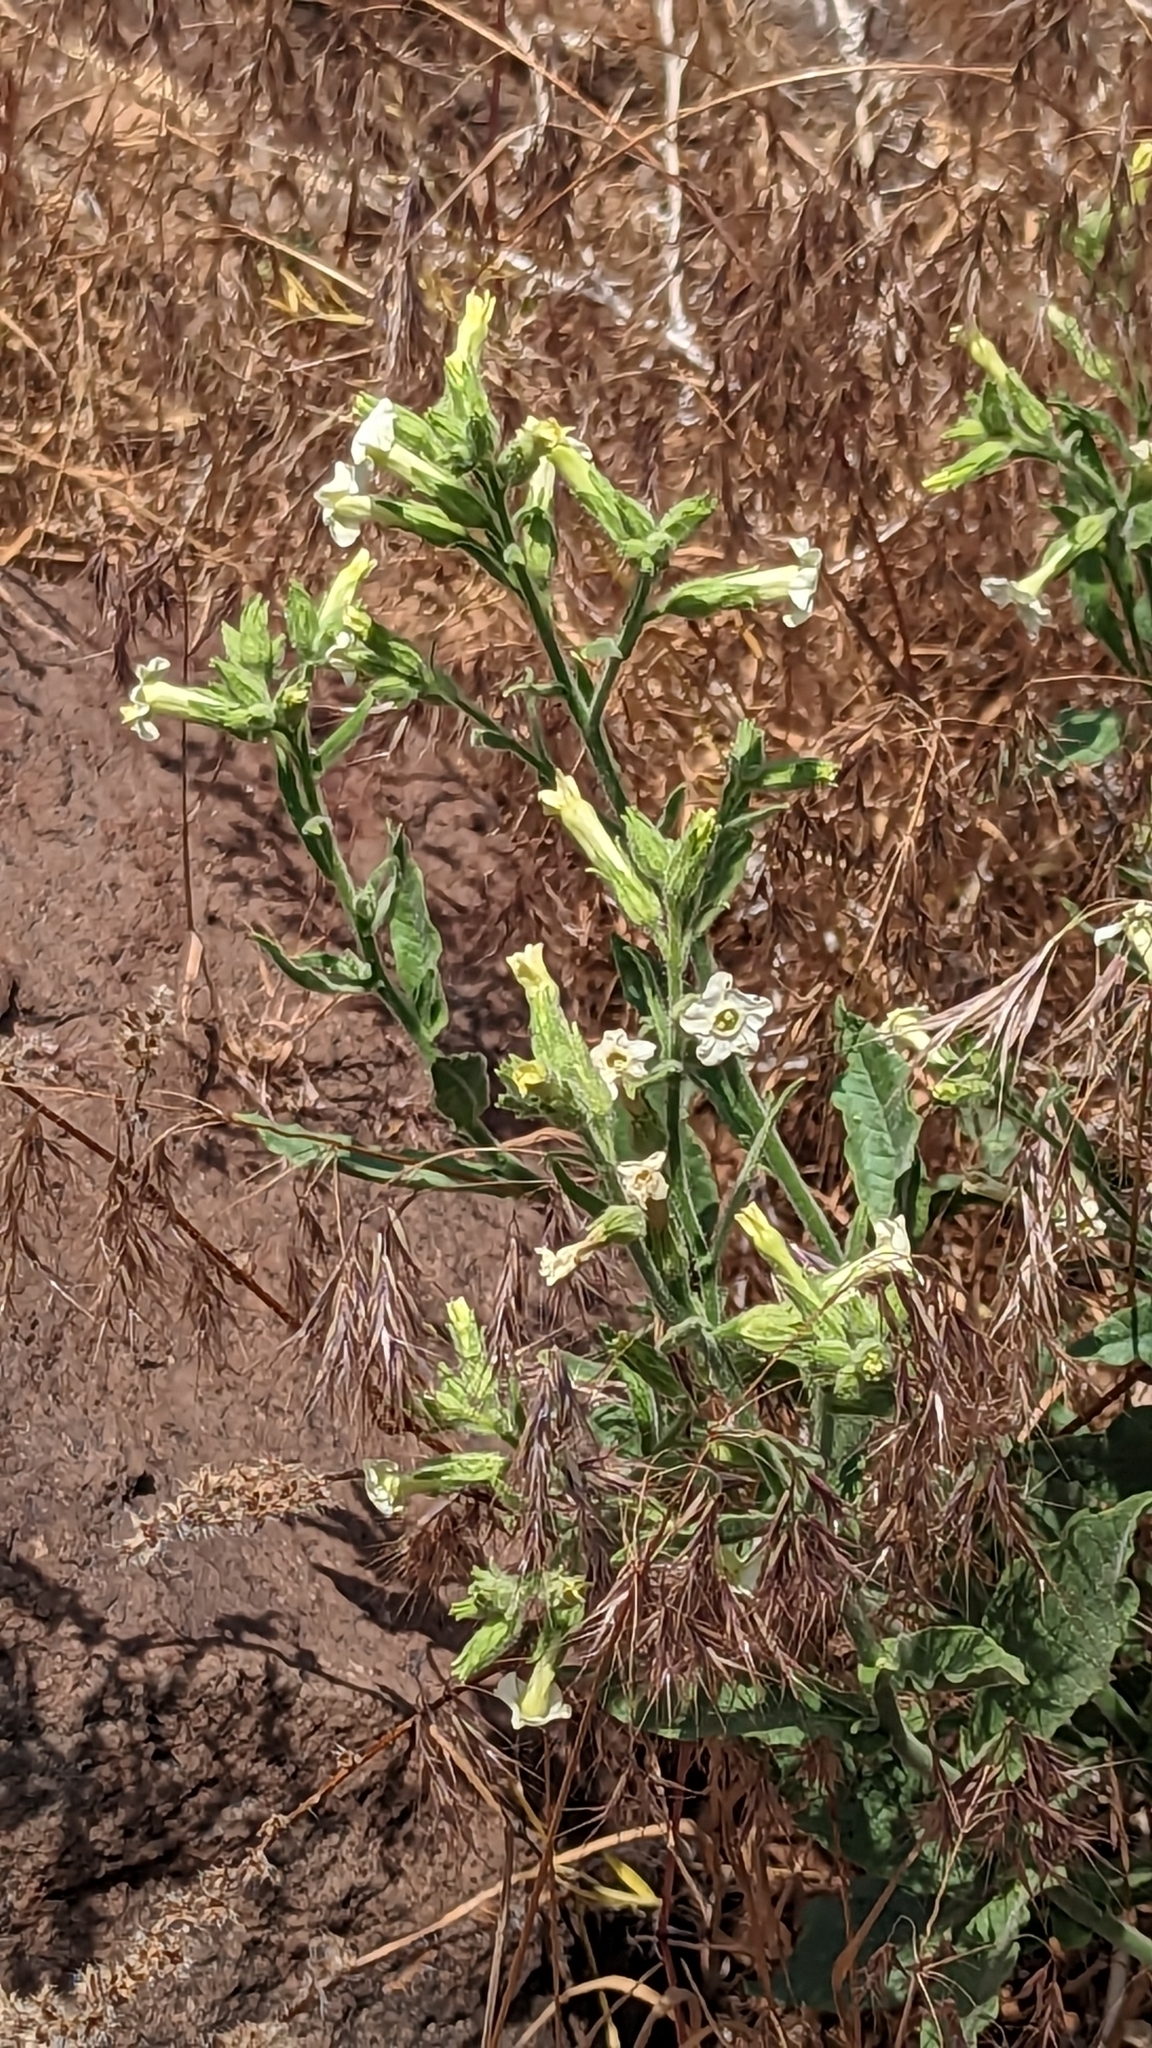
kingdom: Plantae
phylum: Tracheophyta
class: Magnoliopsida
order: Solanales
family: Solanaceae
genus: Nicotiana
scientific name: Nicotiana obtusifolia
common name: Desert tobacco
